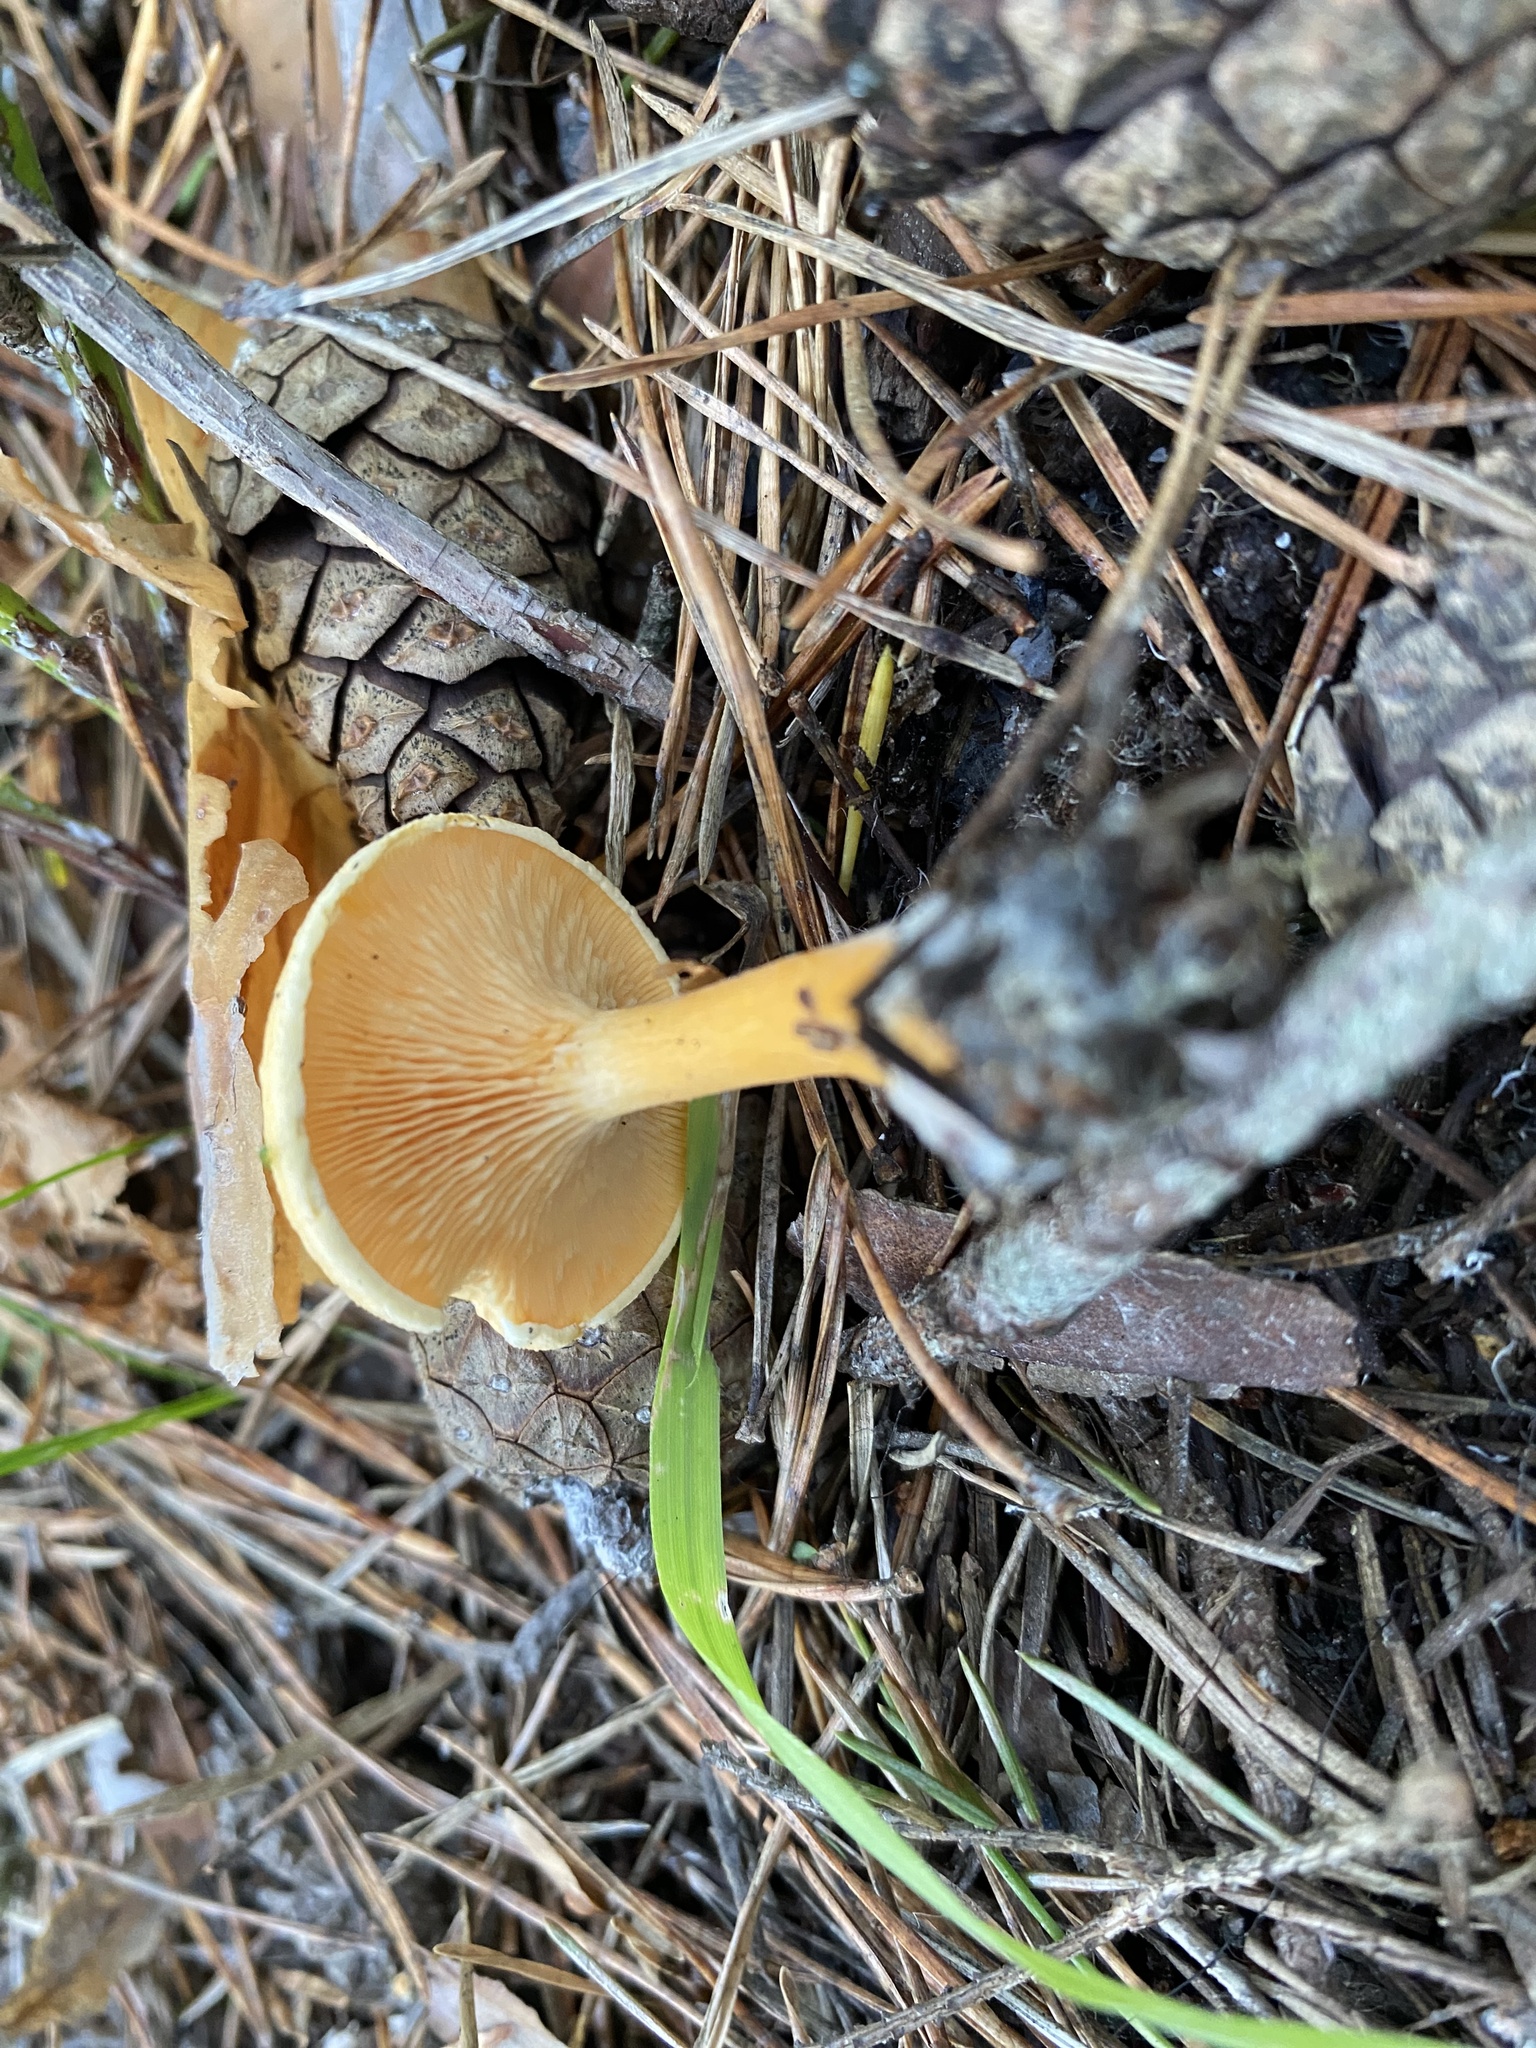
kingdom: Fungi
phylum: Basidiomycota
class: Agaricomycetes
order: Boletales
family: Hygrophoropsidaceae
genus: Hygrophoropsis
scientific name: Hygrophoropsis aurantiaca
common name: False chanterelle
